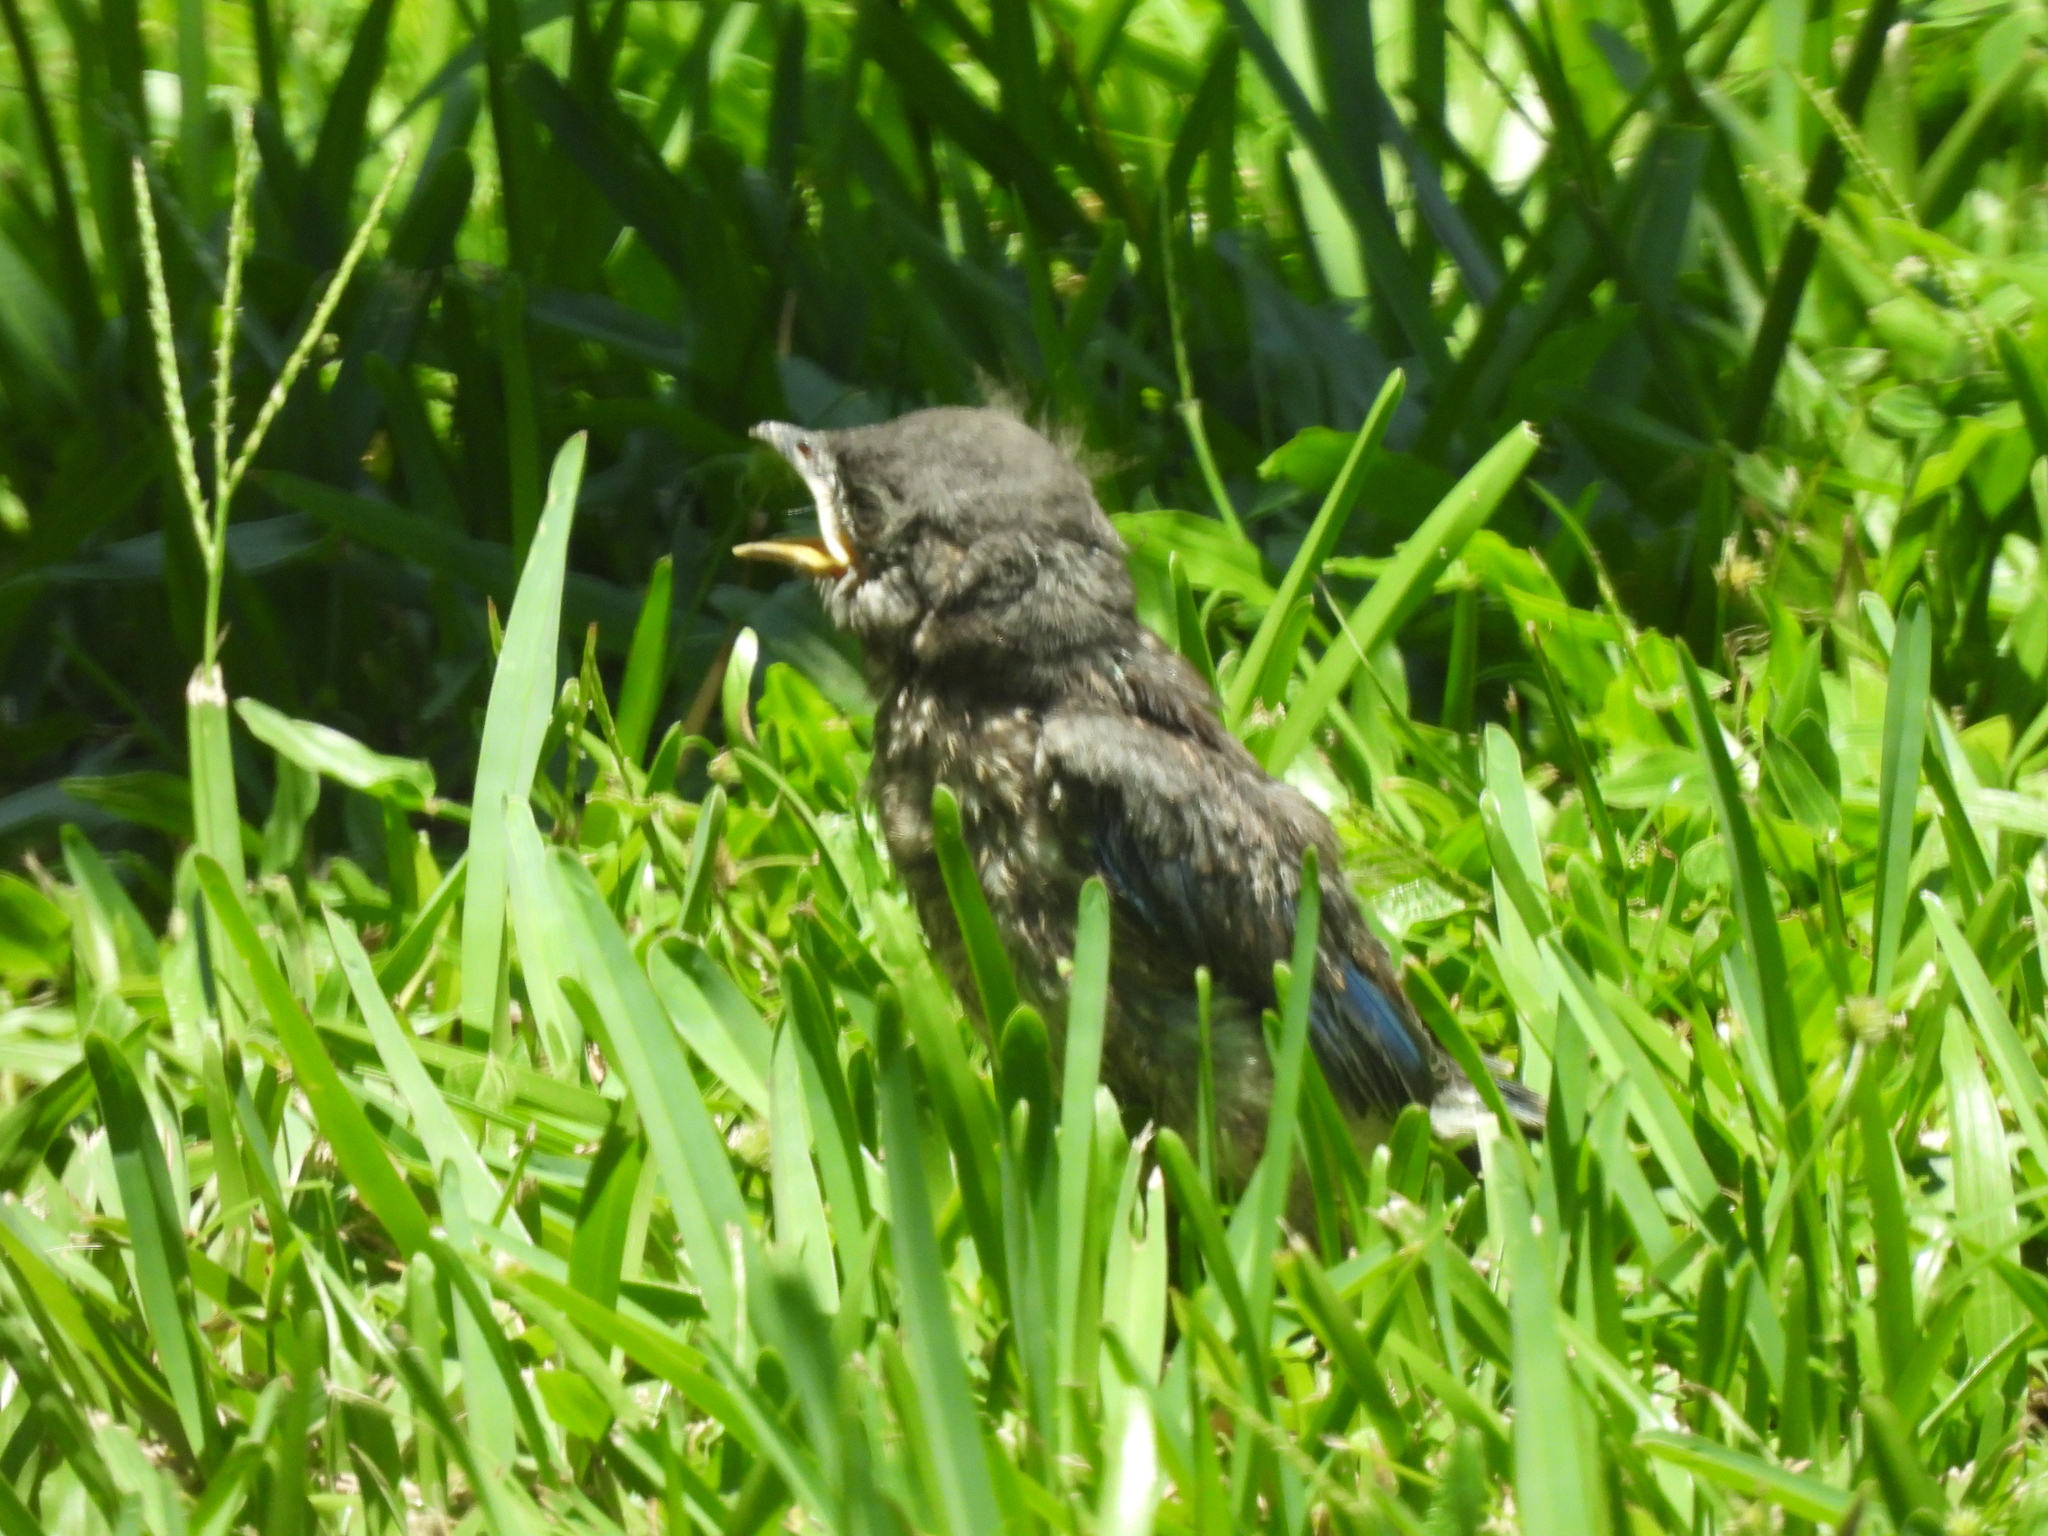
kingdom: Animalia
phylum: Chordata
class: Aves
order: Passeriformes
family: Turdidae
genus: Sialia
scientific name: Sialia sialis
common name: Eastern bluebird
